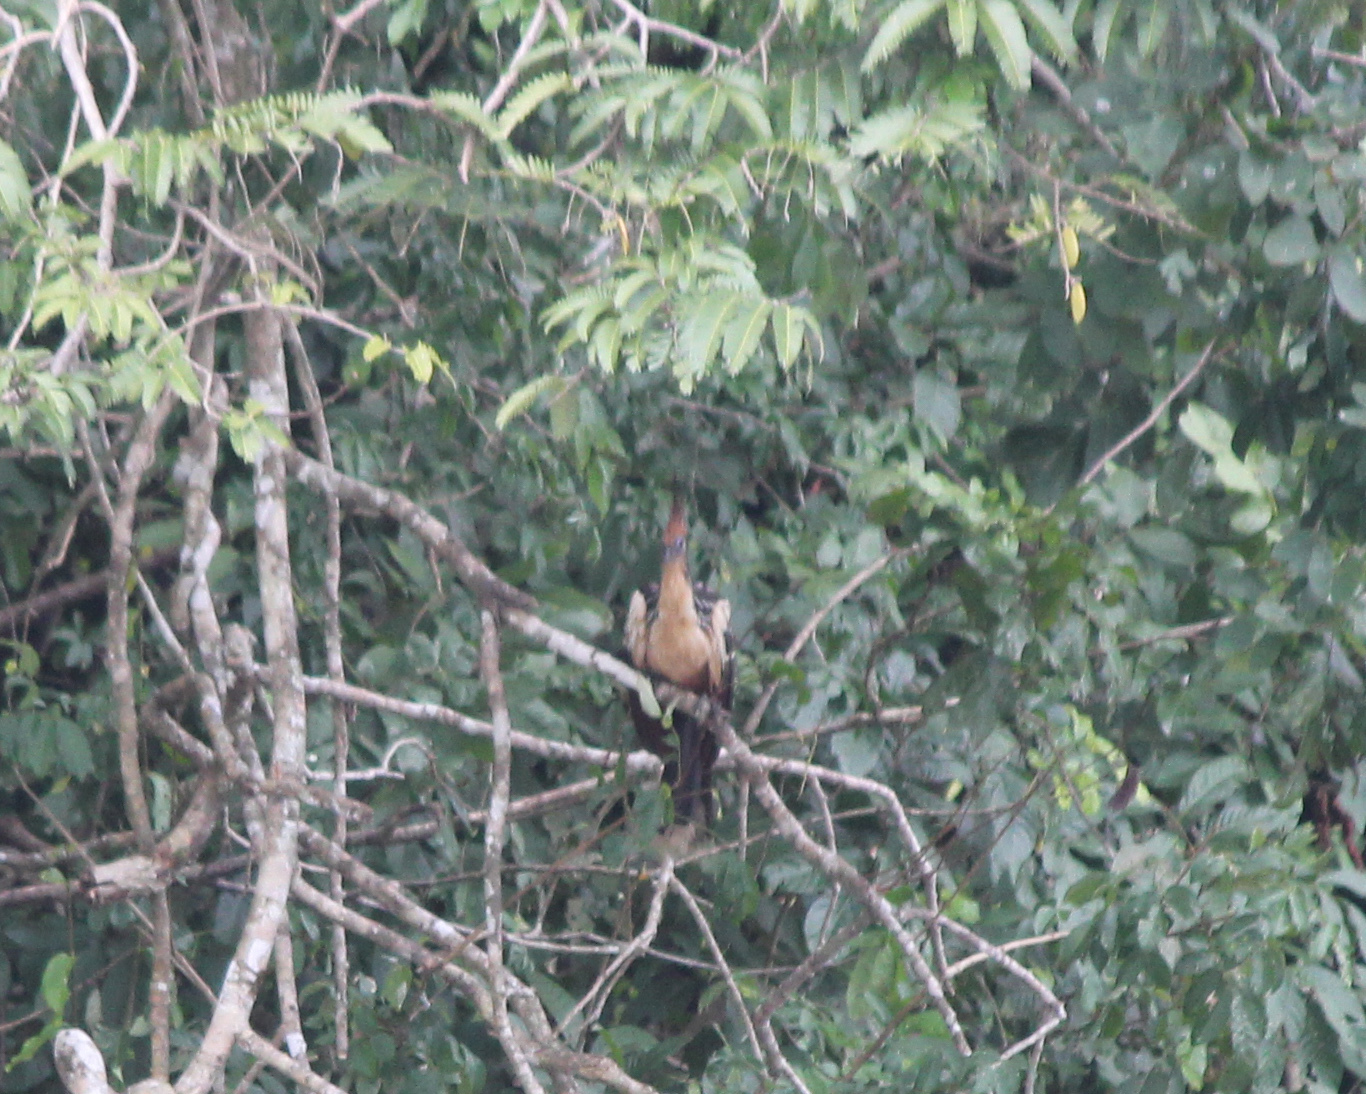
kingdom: Animalia
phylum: Chordata
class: Aves
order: Opisthocomiformes
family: Opisthocomidae
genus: Opisthocomus
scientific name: Opisthocomus hoazin
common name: Hoatzin
